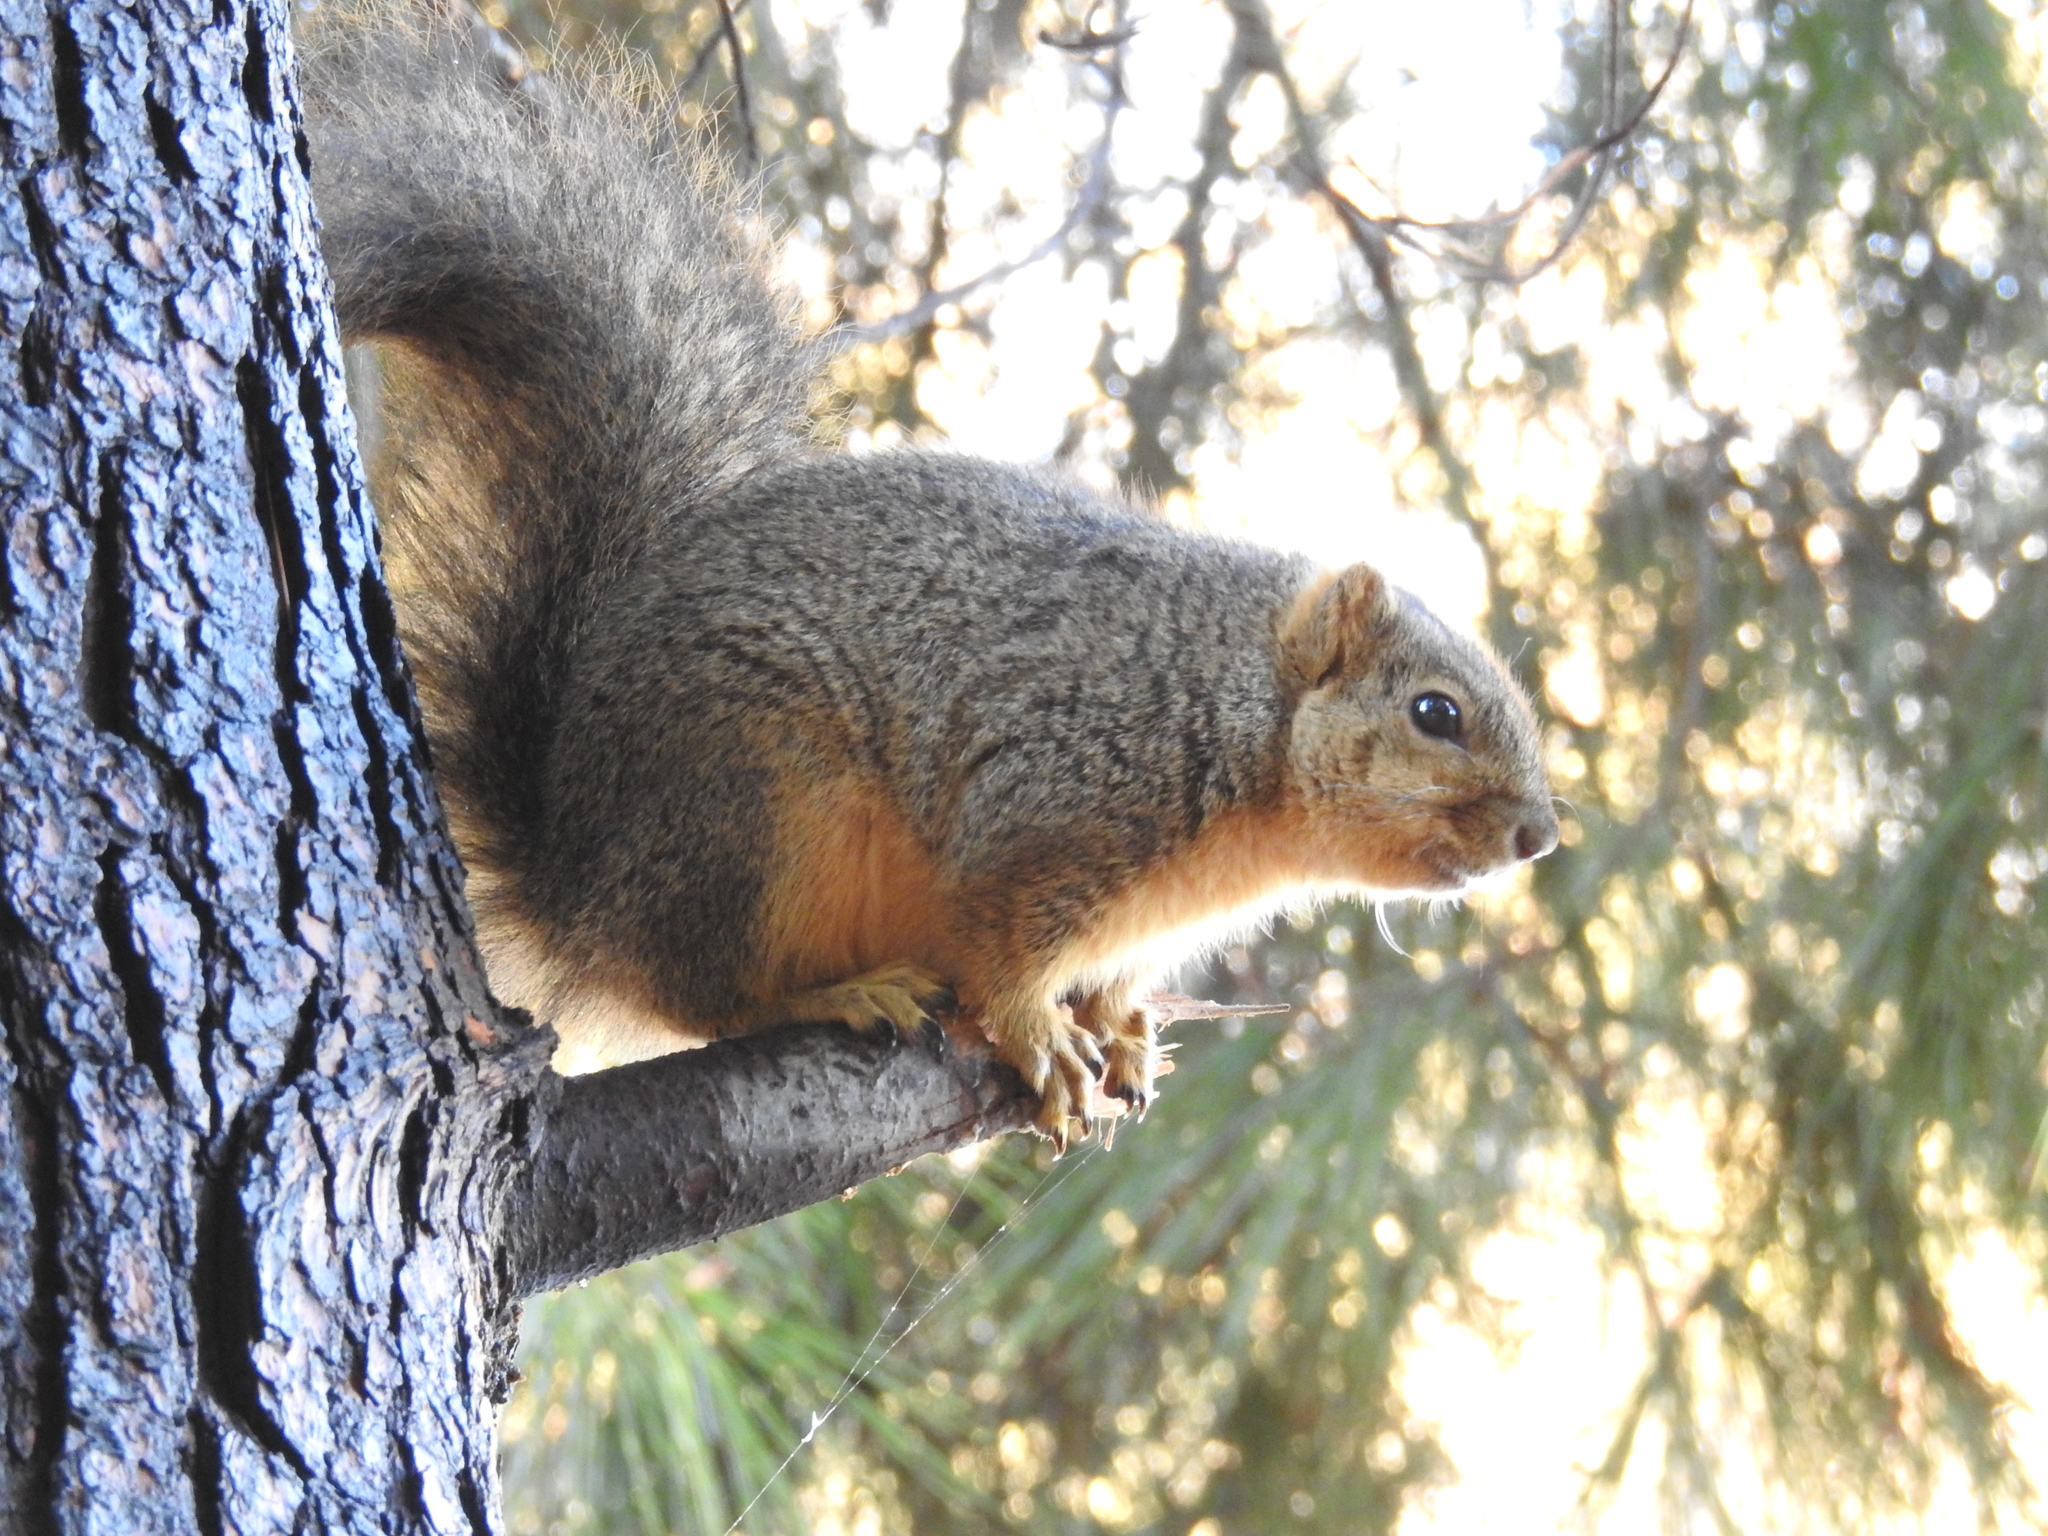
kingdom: Animalia
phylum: Chordata
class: Mammalia
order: Rodentia
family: Sciuridae
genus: Sciurus
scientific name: Sciurus niger
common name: Fox squirrel
